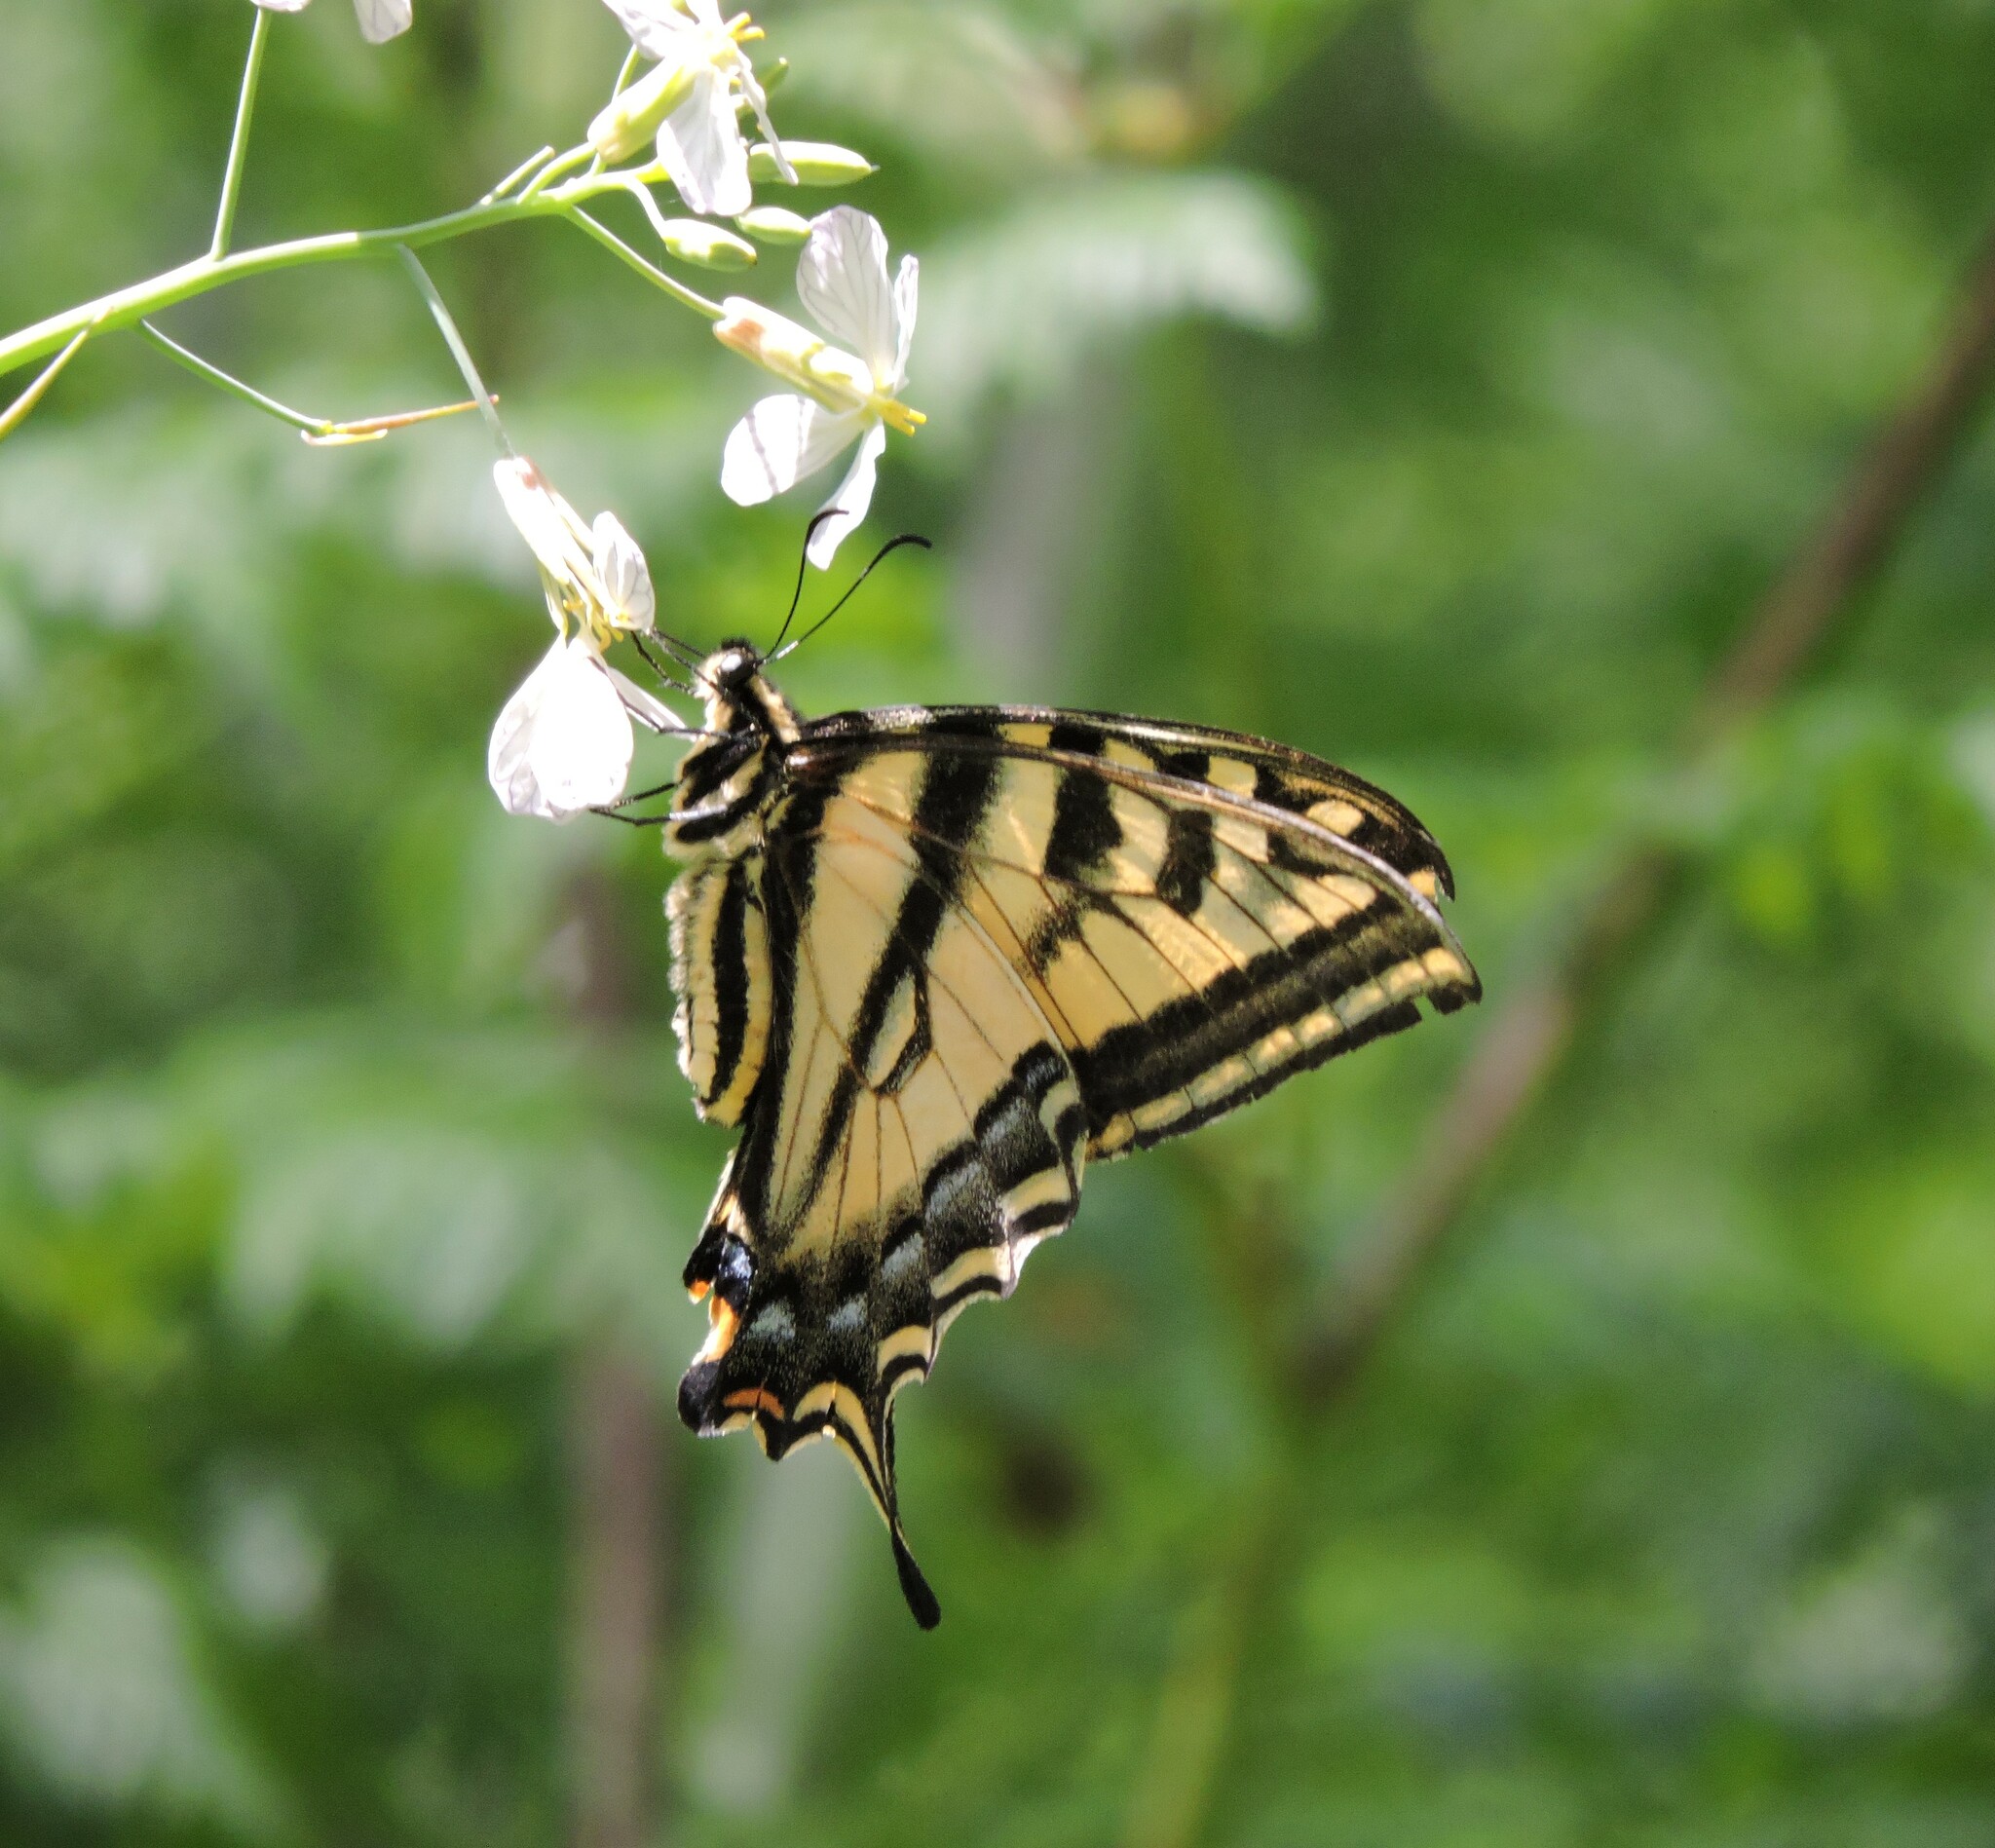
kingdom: Animalia
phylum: Arthropoda
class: Insecta
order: Lepidoptera
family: Papilionidae
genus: Papilio
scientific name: Papilio rutulus
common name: Western tiger swallowtail
